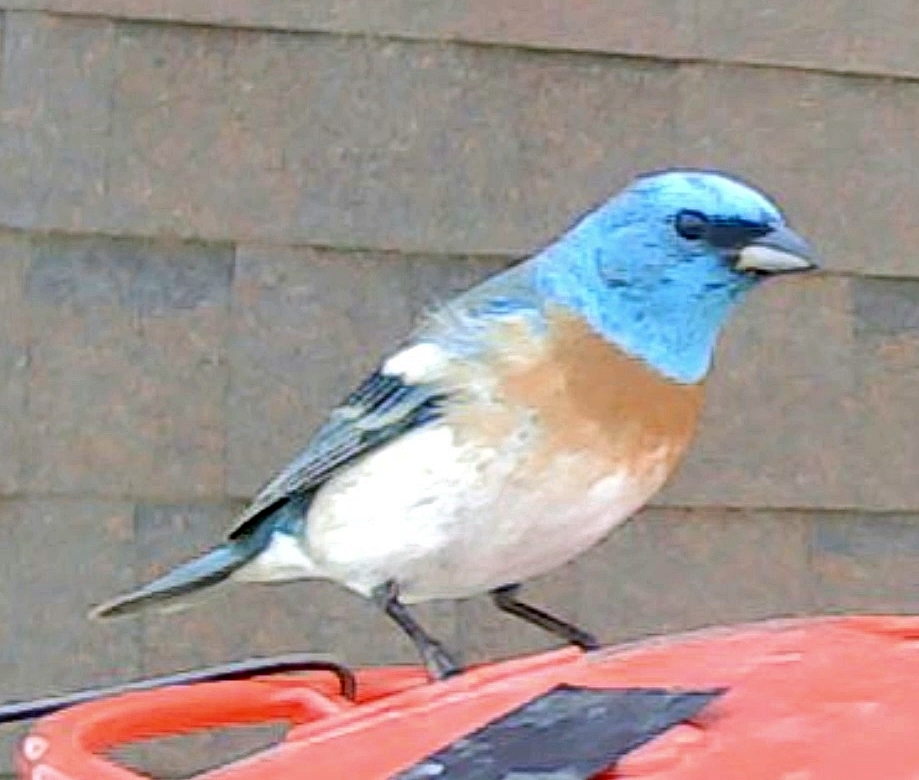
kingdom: Animalia
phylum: Chordata
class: Aves
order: Passeriformes
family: Cardinalidae
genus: Passerina
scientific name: Passerina amoena
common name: Lazuli bunting
